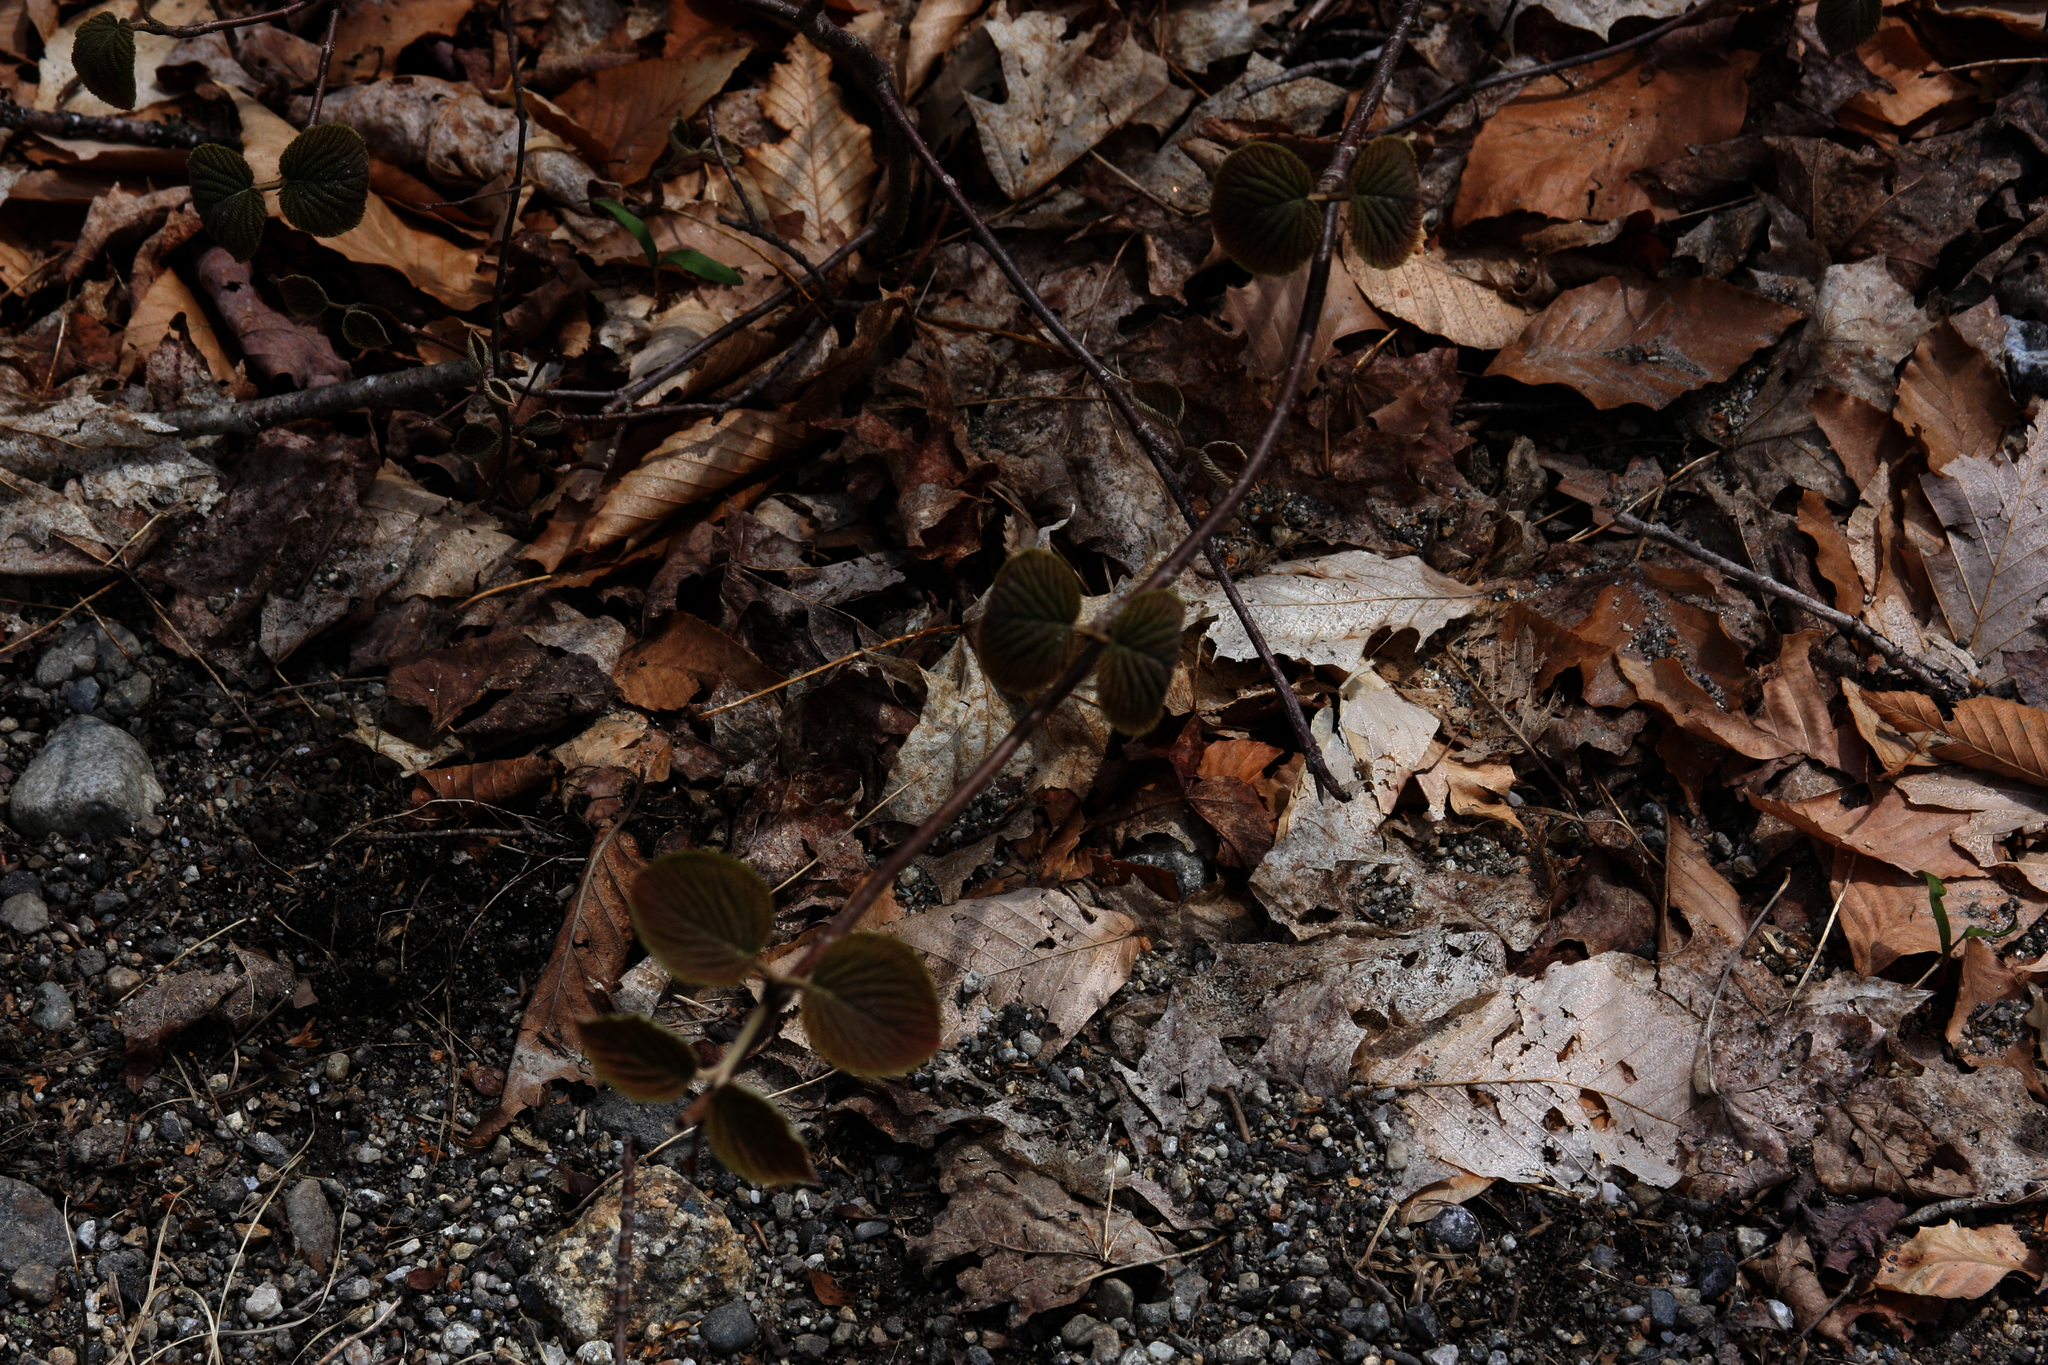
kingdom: Plantae
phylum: Tracheophyta
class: Magnoliopsida
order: Dipsacales
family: Viburnaceae
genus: Viburnum
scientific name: Viburnum lantanoides
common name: Hobblebush
